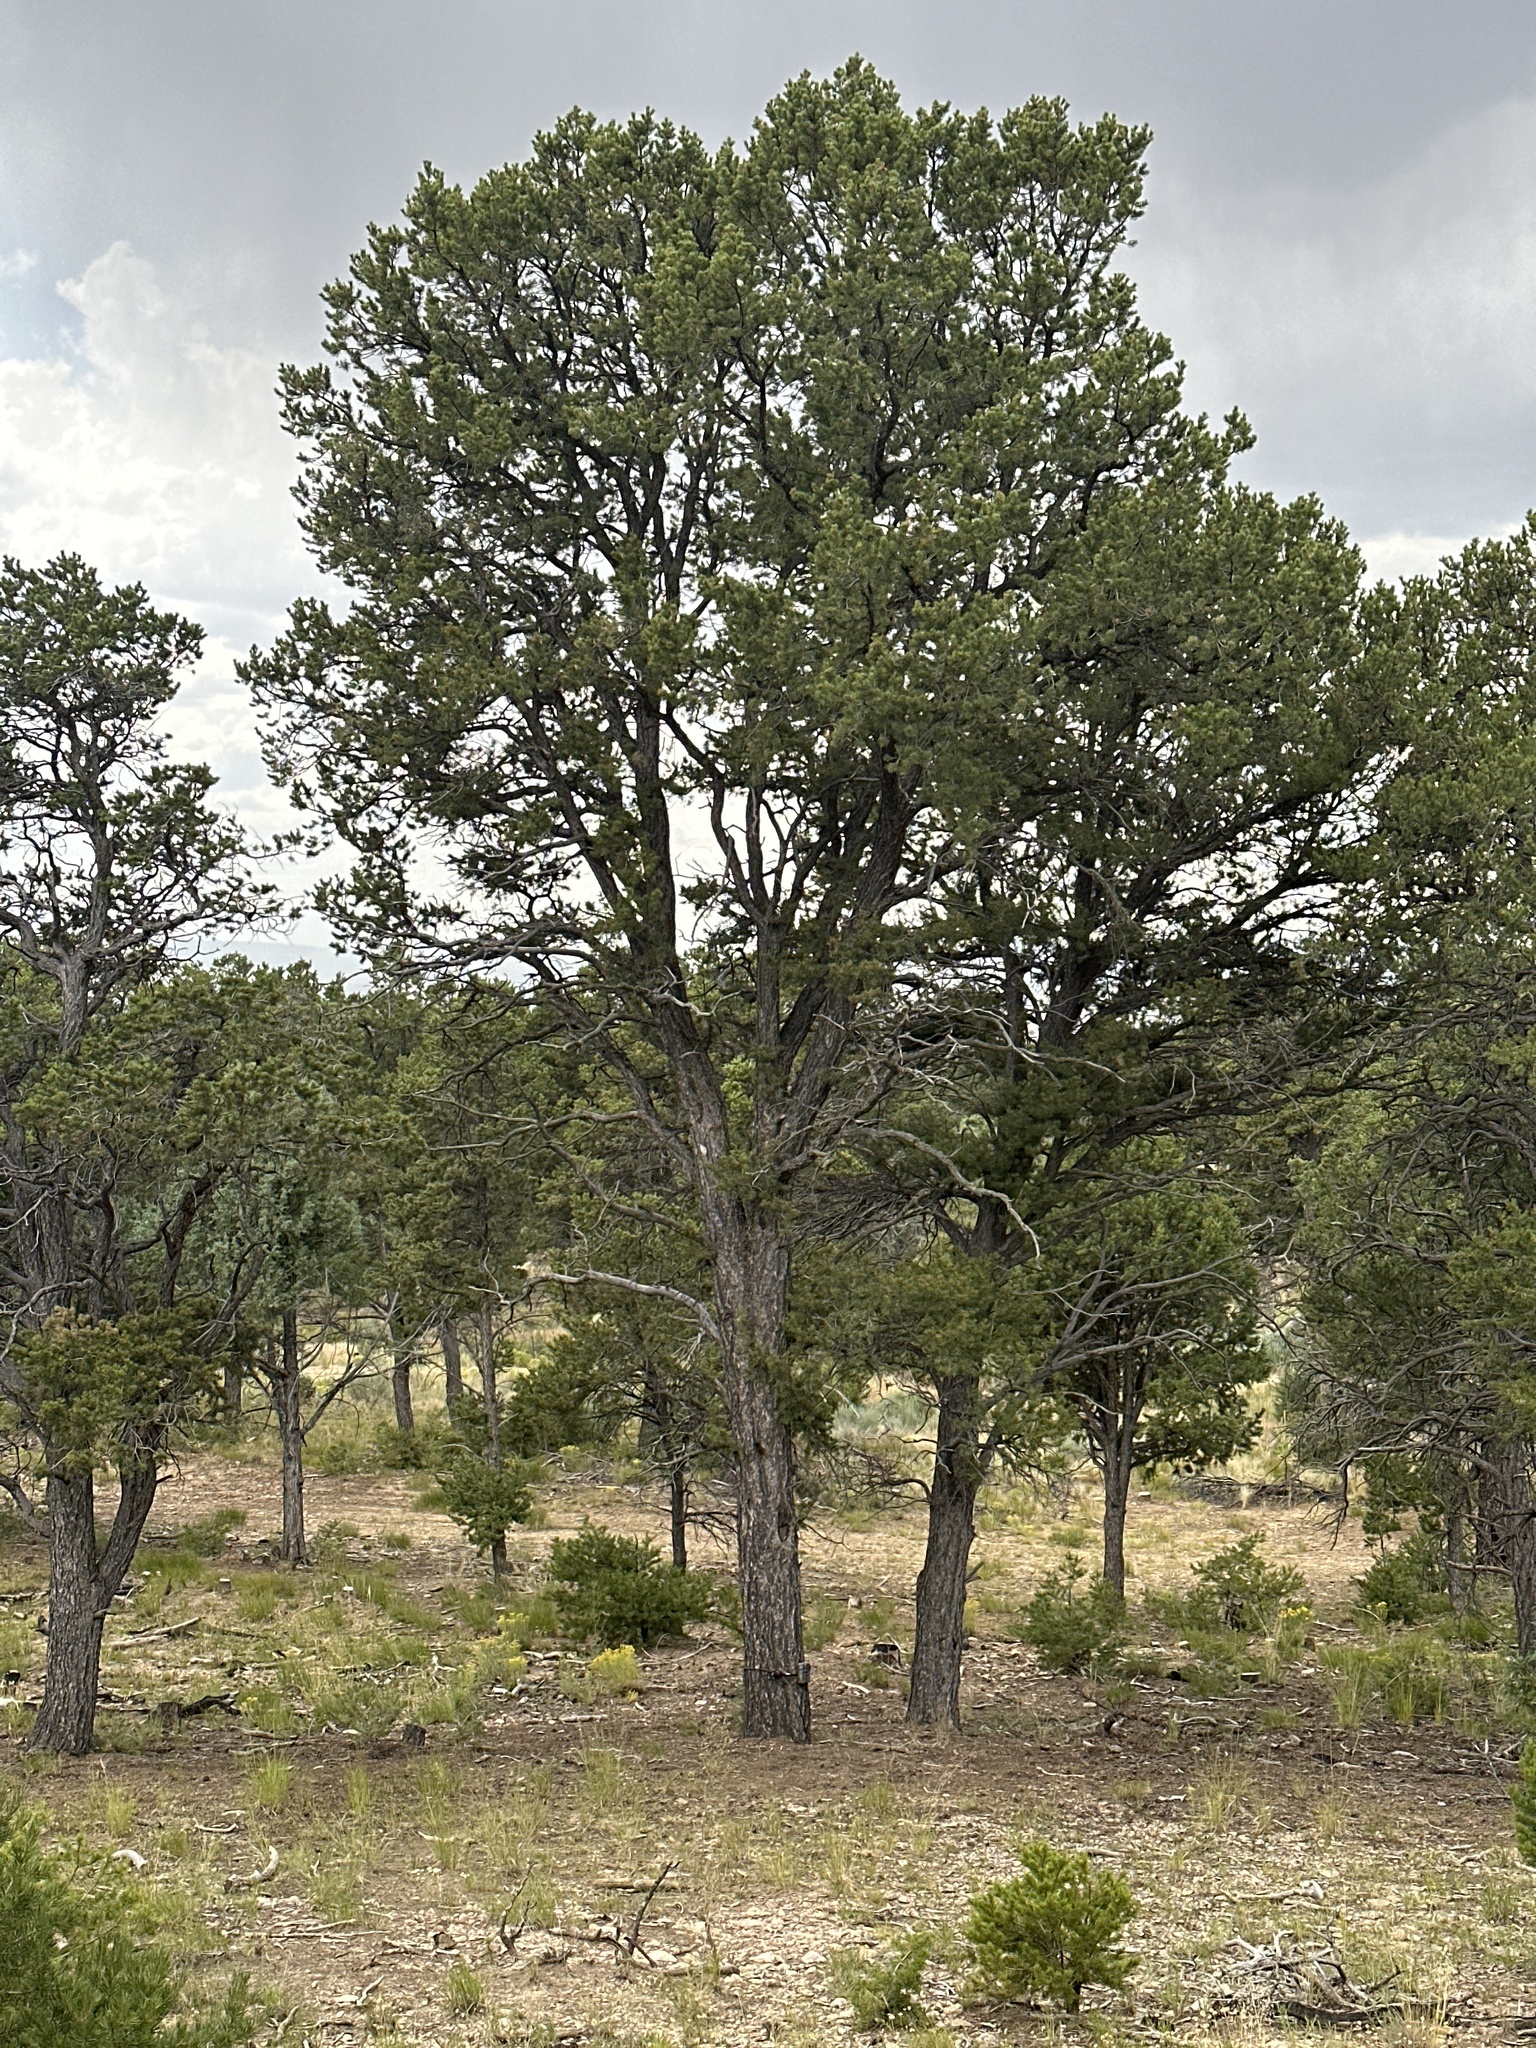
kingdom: Plantae
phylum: Tracheophyta
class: Pinopsida
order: Pinales
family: Pinaceae
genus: Pinus
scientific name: Pinus edulis
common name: Colorado pinyon
